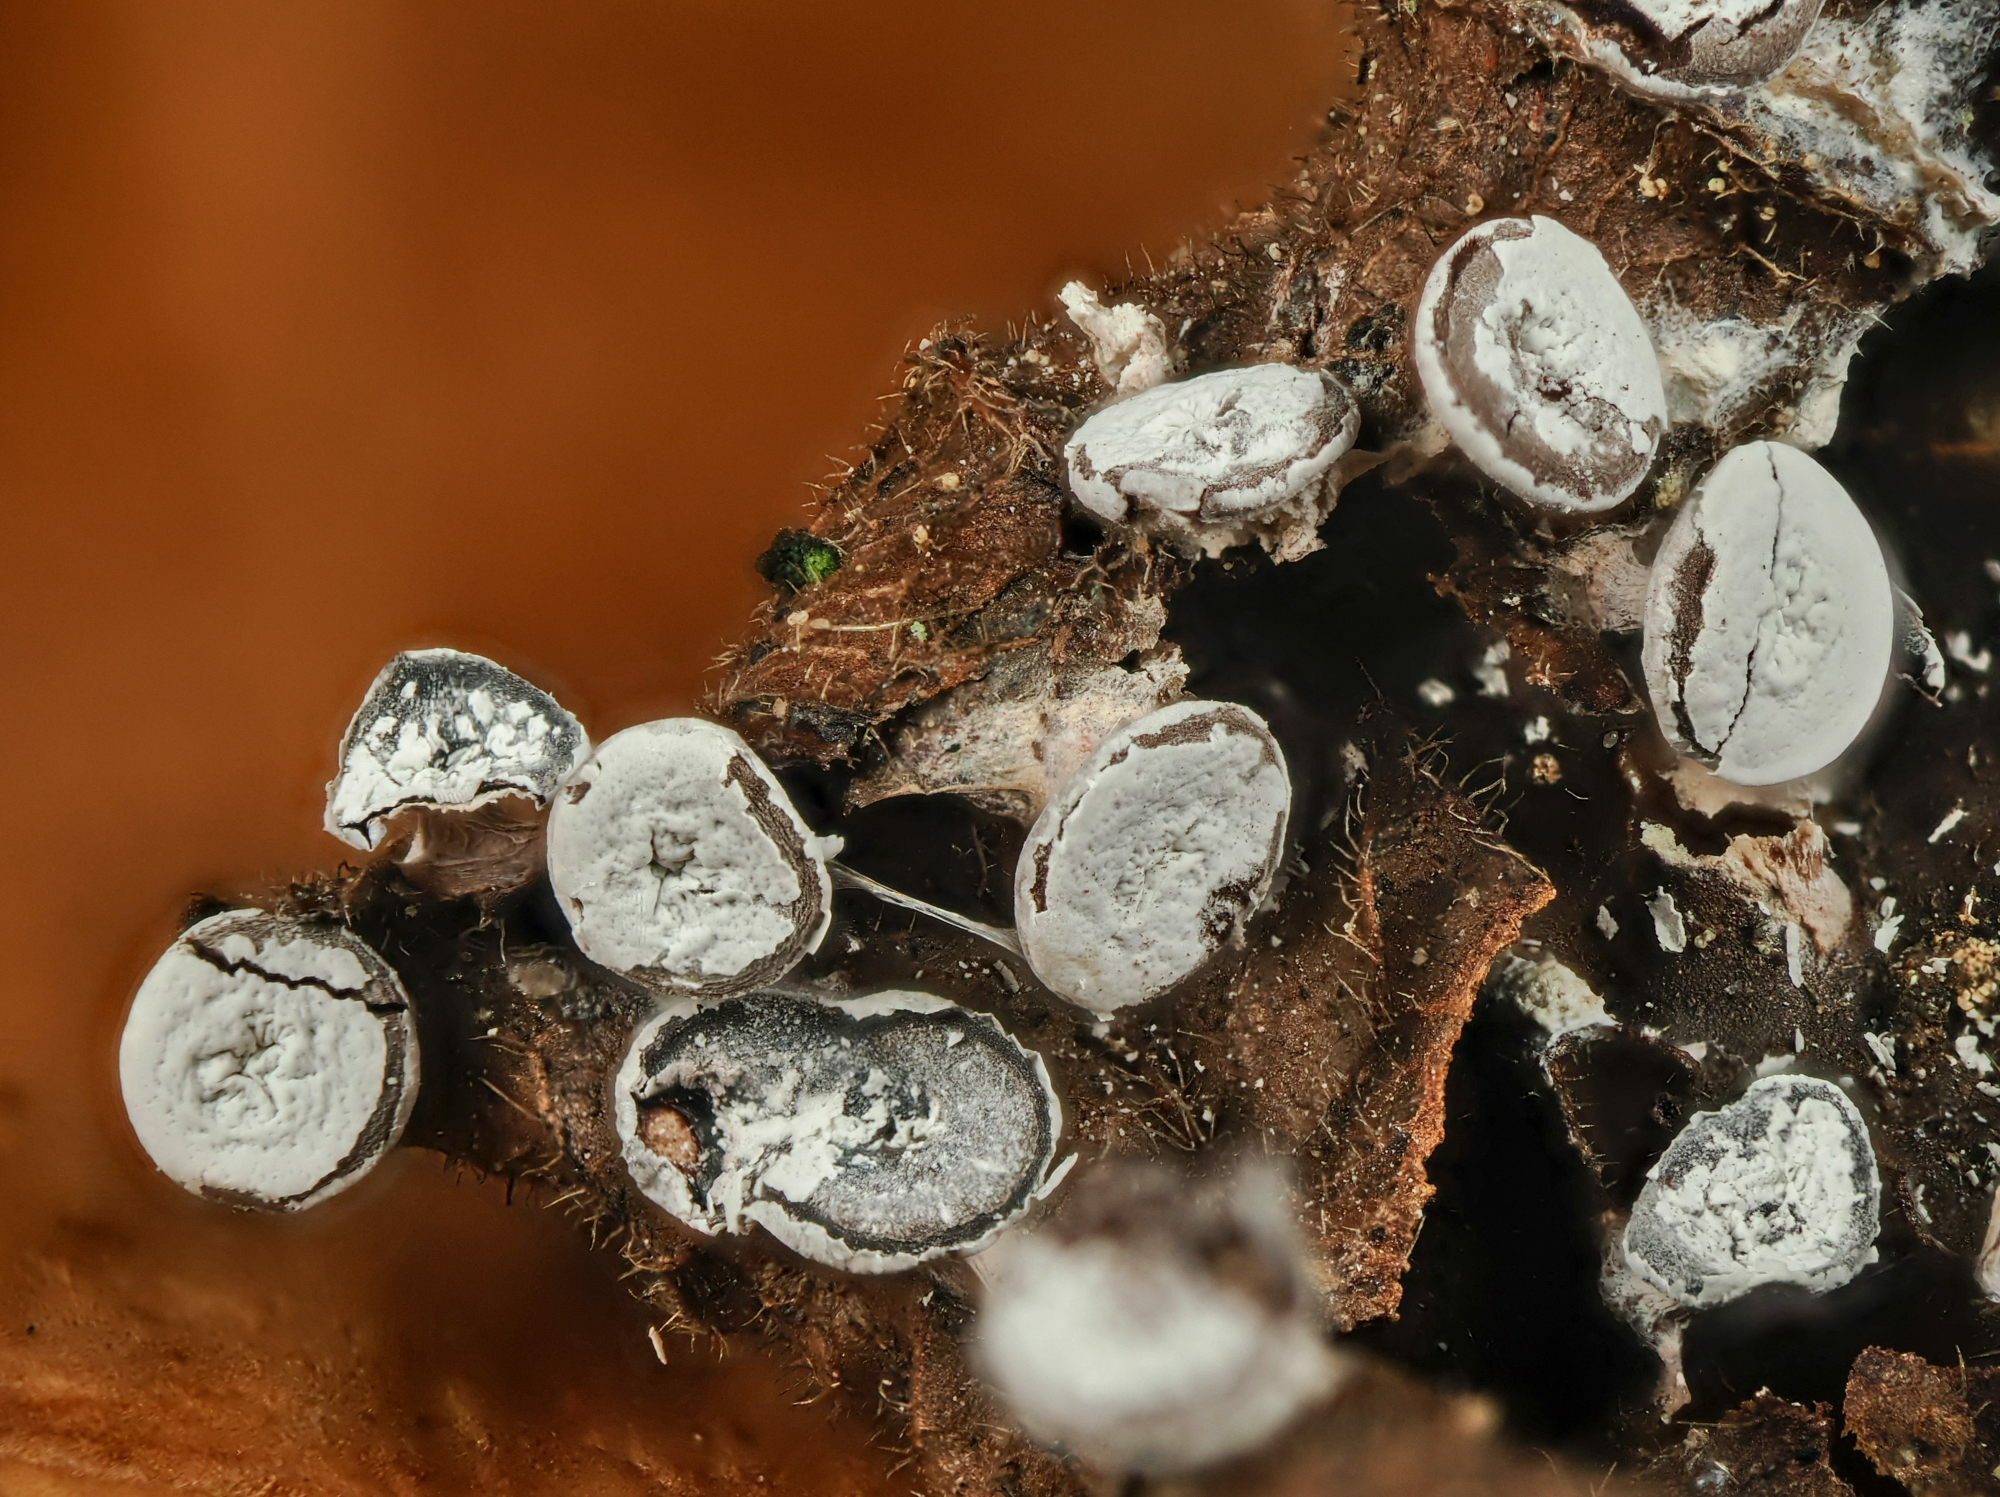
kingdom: Protozoa
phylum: Mycetozoa
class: Myxomycetes
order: Physarales
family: Didymiaceae
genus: Diderma
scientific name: Diderma hemisphaericum
